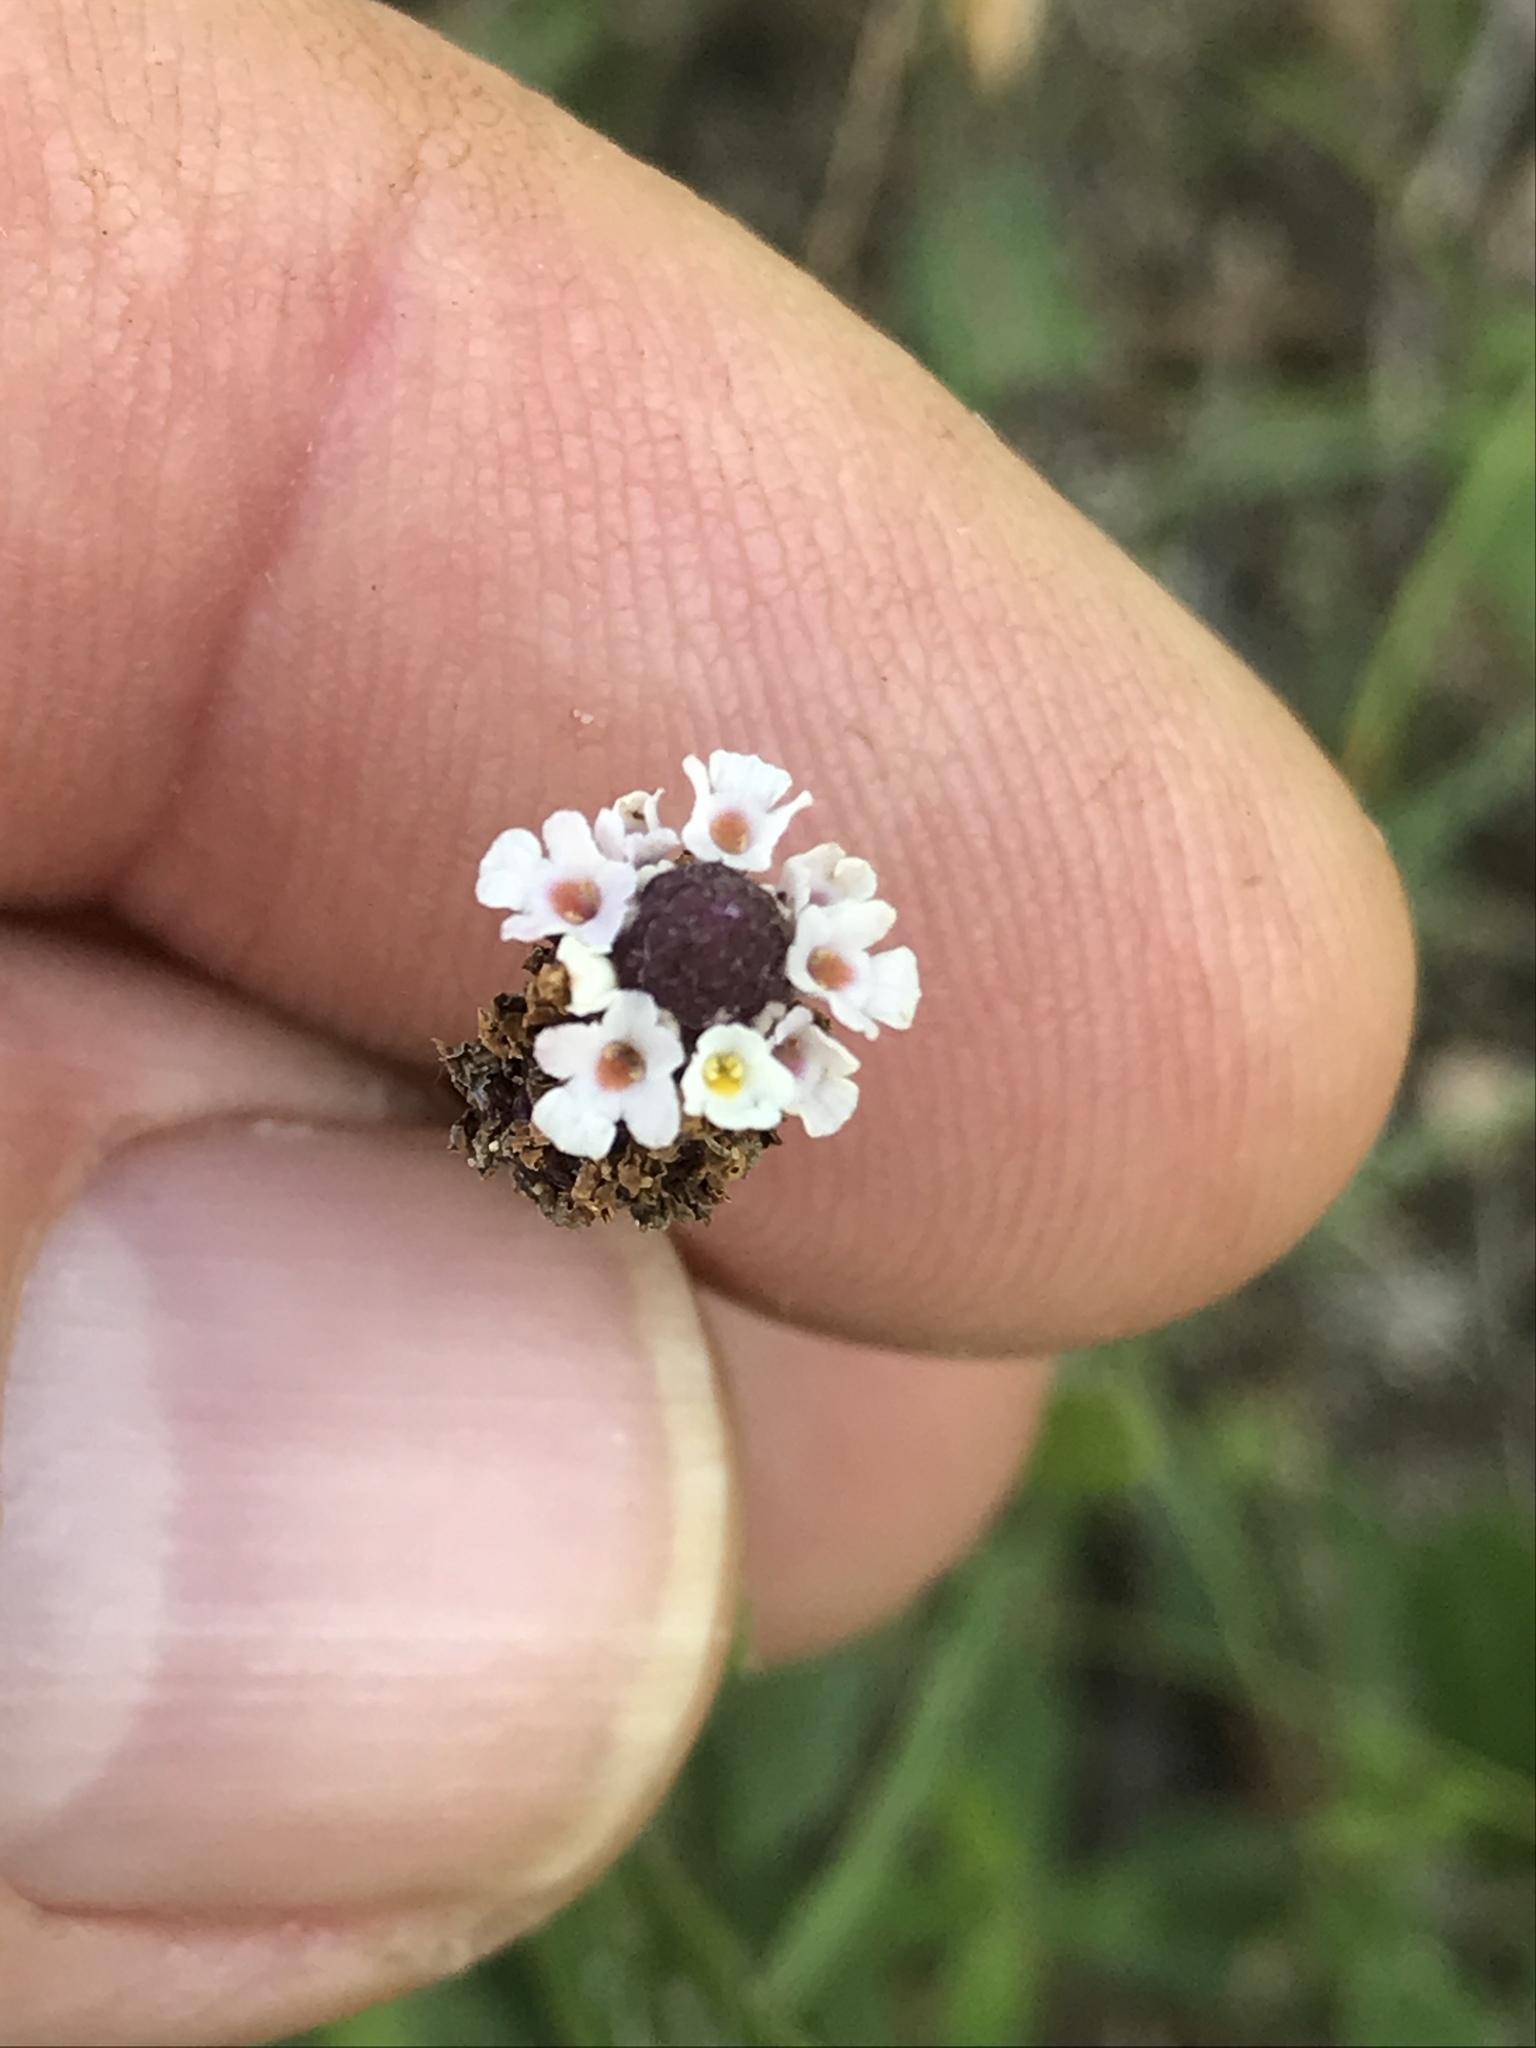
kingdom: Plantae
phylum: Tracheophyta
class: Magnoliopsida
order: Lamiales
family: Verbenaceae
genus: Phyla
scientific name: Phyla nodiflora
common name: Frogfruit
